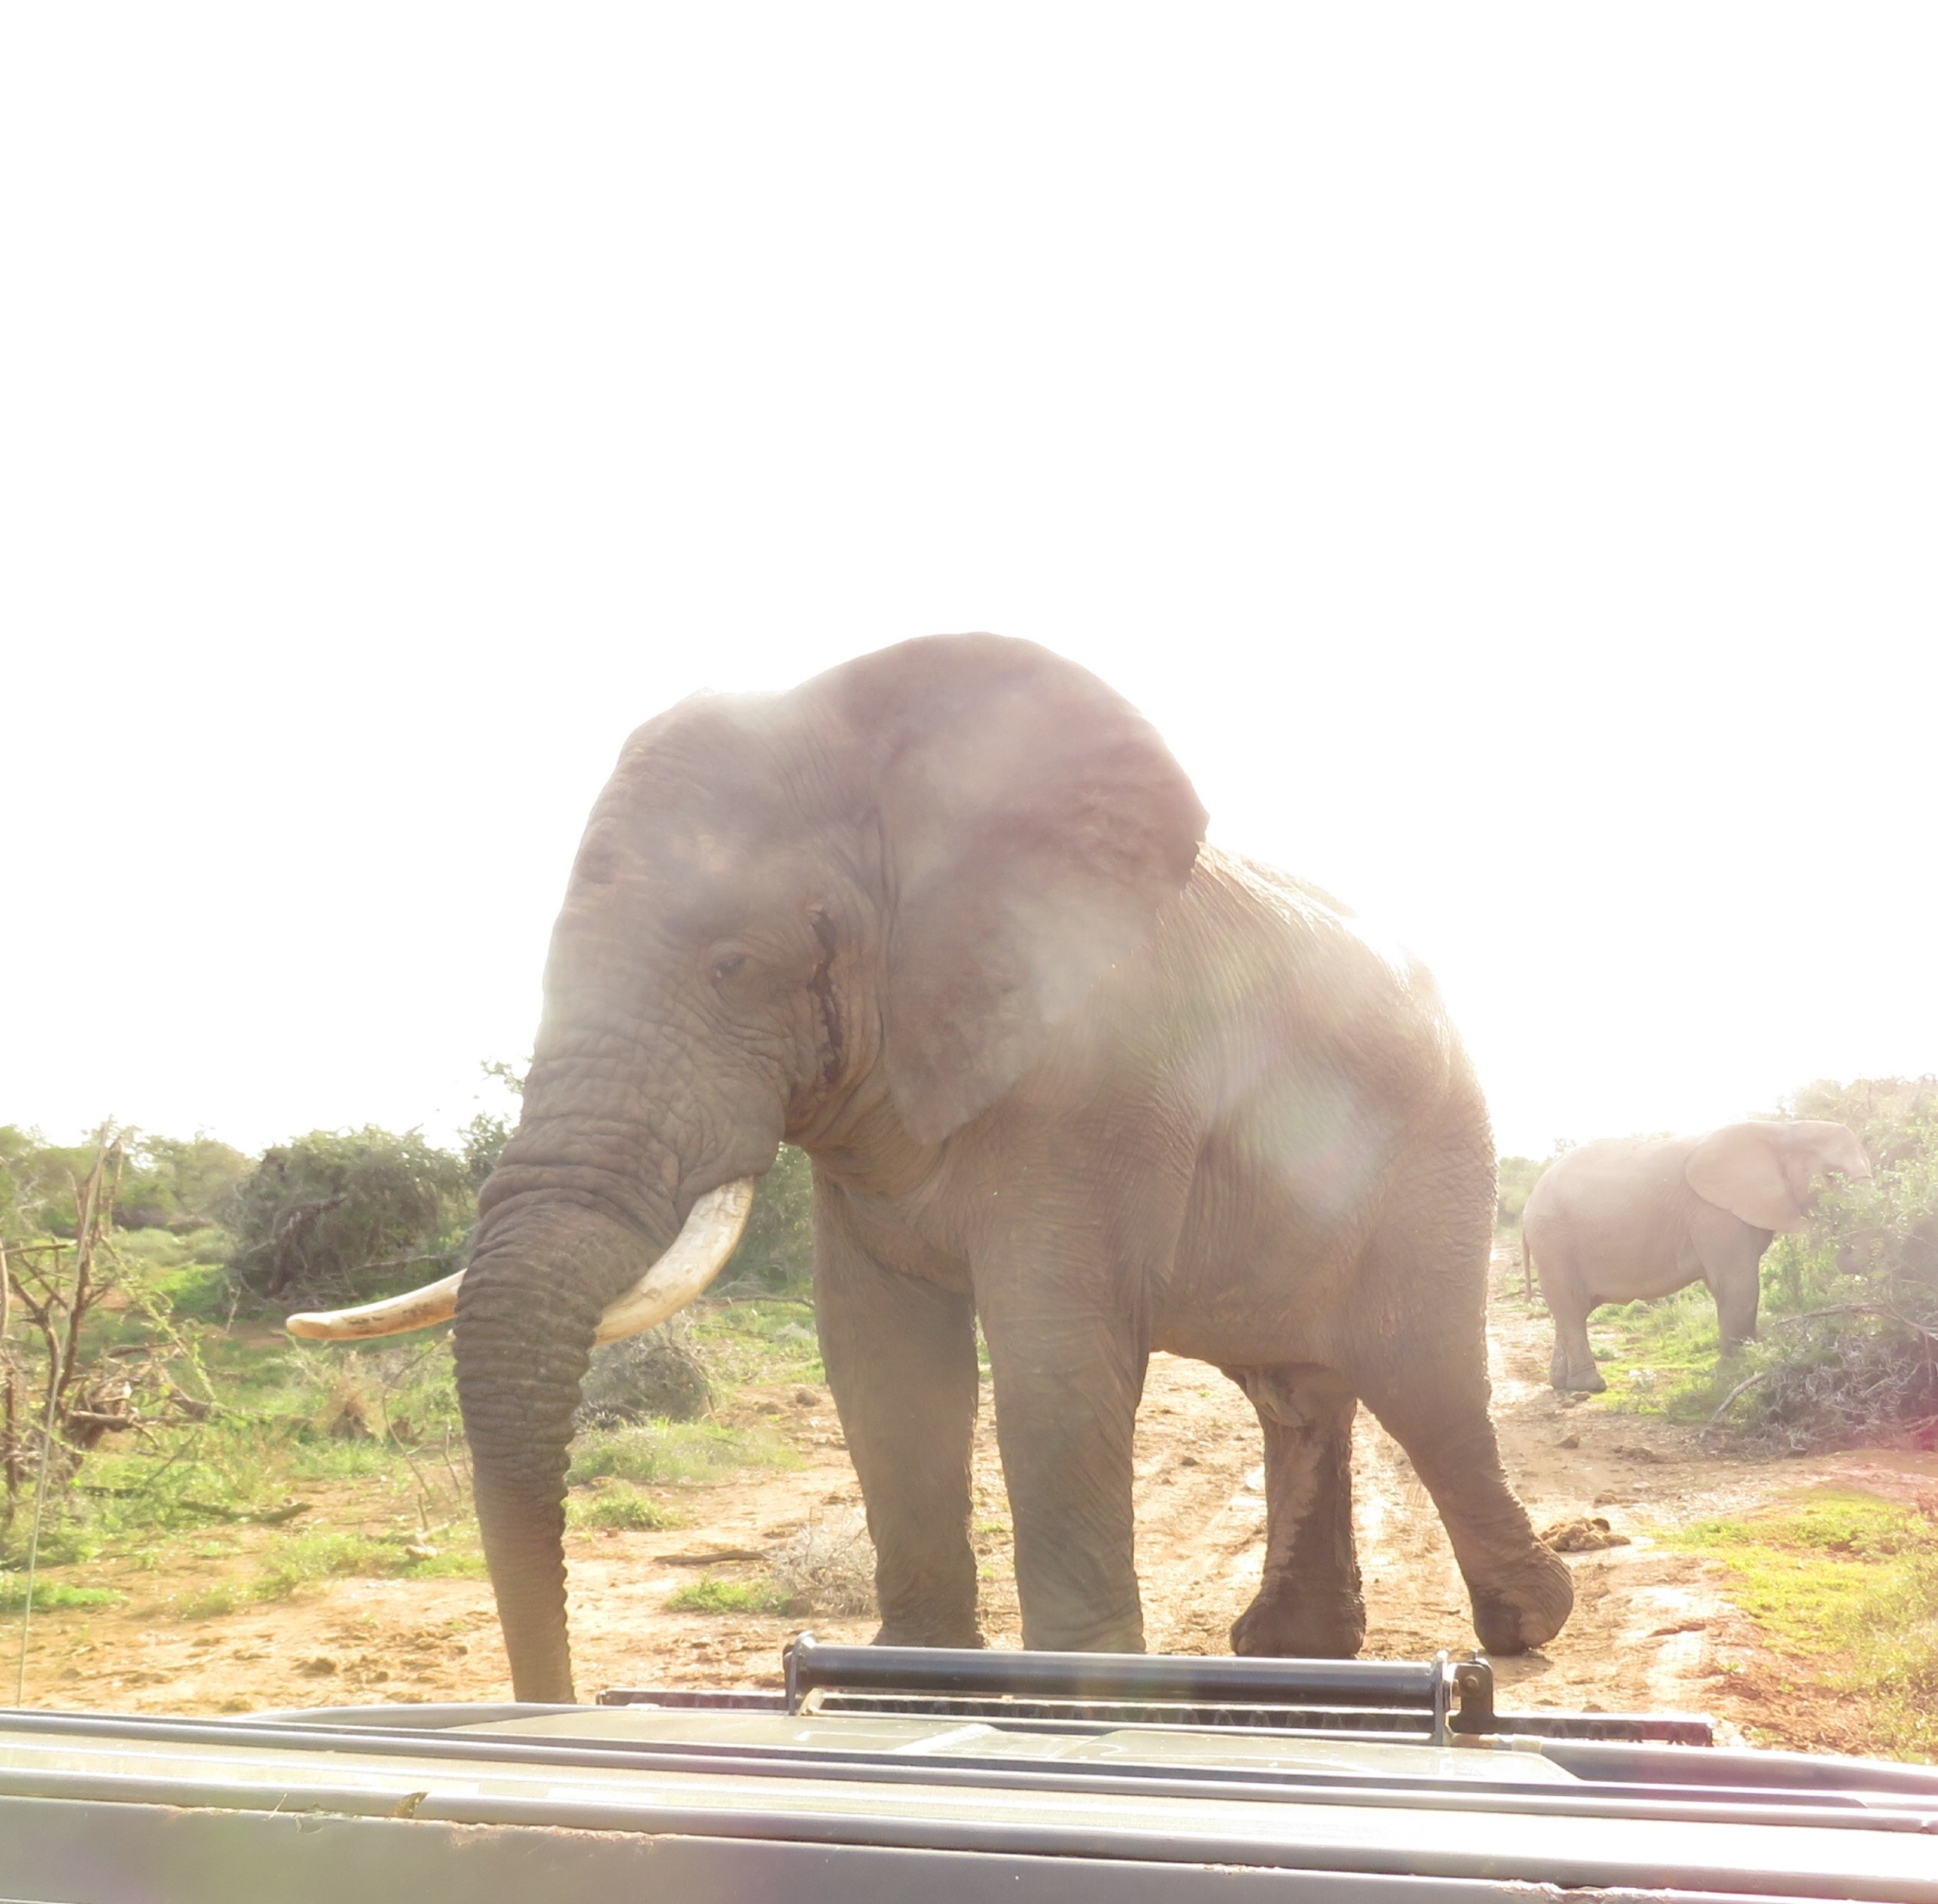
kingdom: Animalia
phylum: Chordata
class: Mammalia
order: Proboscidea
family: Elephantidae
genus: Loxodonta
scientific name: Loxodonta africana
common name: African elephant
